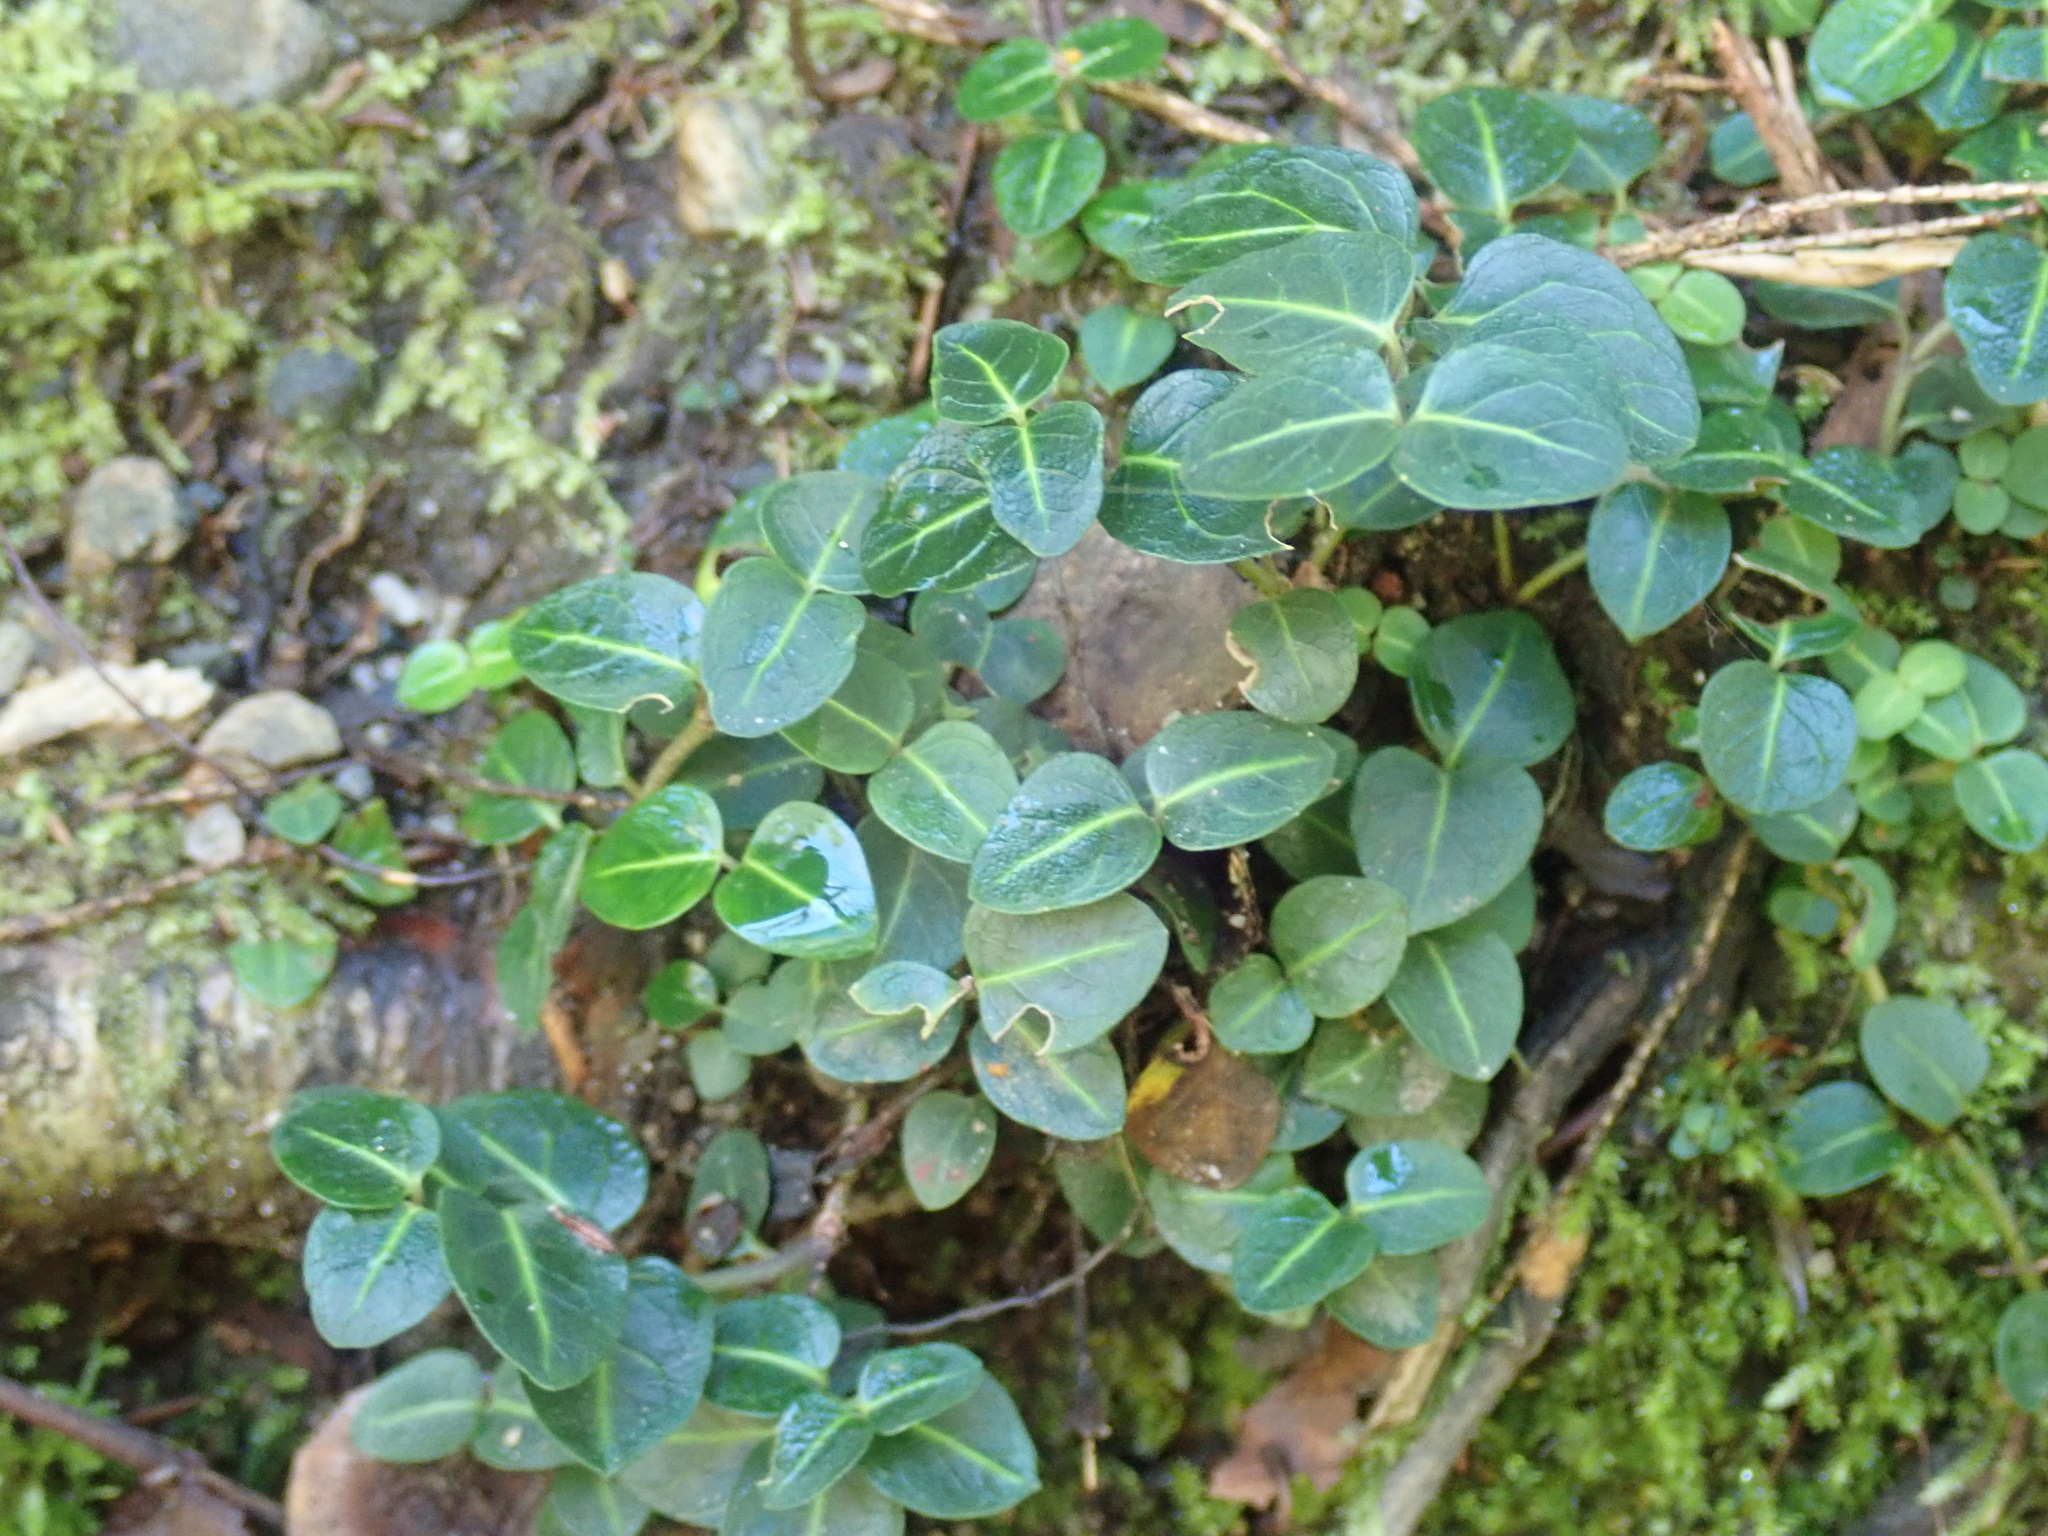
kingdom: Plantae
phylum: Tracheophyta
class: Magnoliopsida
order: Gentianales
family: Rubiaceae
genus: Mitchella
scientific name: Mitchella repens
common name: Partridge-berry
